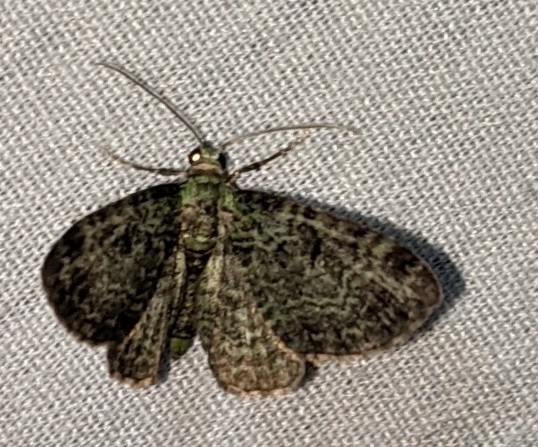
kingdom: Animalia
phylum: Arthropoda
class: Insecta
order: Lepidoptera
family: Geometridae
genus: Pasiphila
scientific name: Pasiphila rectangulata
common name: Green pug
